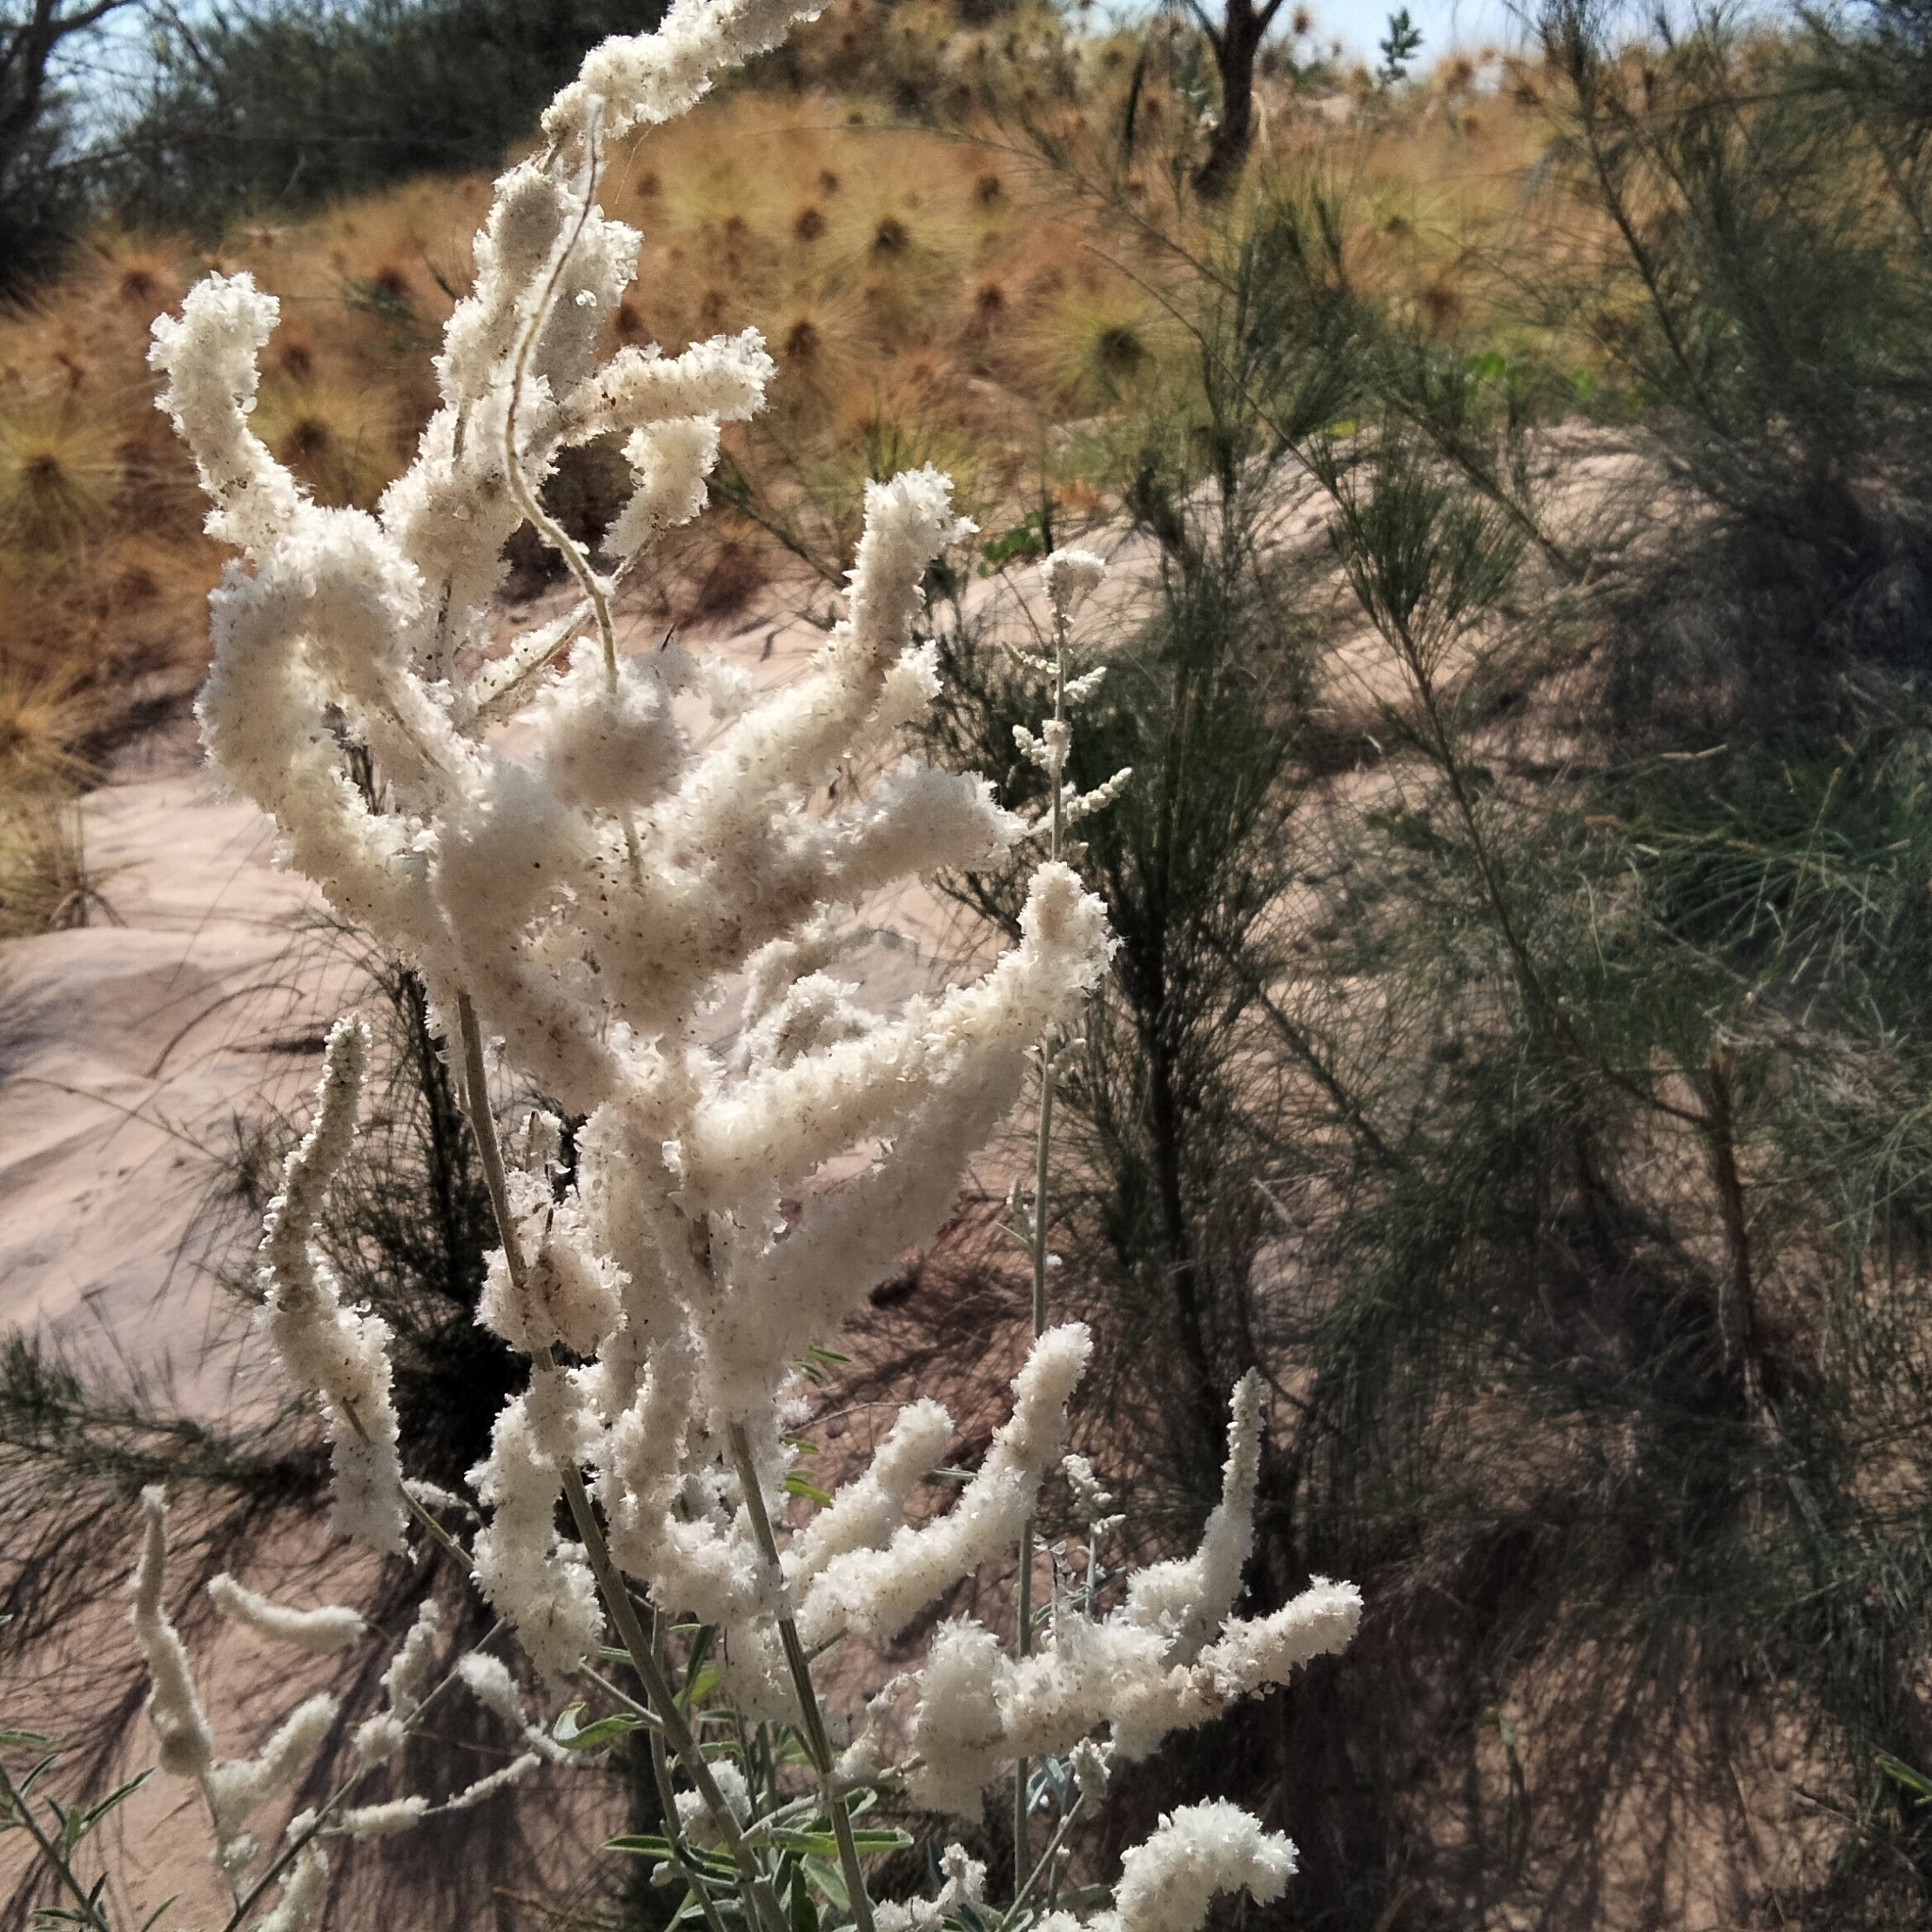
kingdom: Plantae
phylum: Tracheophyta
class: Magnoliopsida
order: Caryophyllales
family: Amaranthaceae
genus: Aerva
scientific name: Aerva javanica
